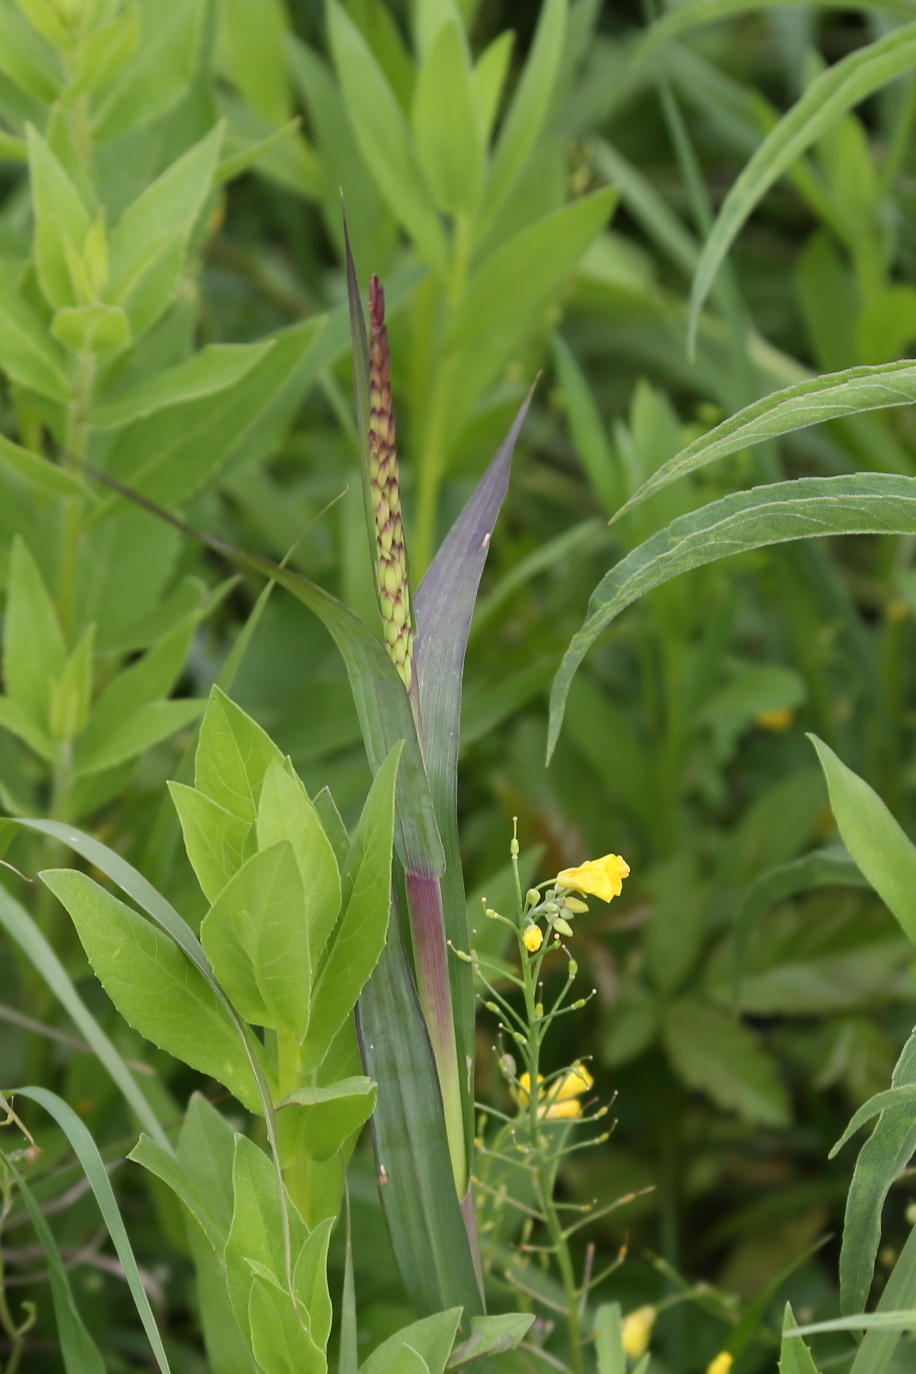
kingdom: Plantae
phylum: Tracheophyta
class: Liliopsida
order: Poales
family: Poaceae
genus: Tripsacum
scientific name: Tripsacum dactyloides
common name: Buffalo-grass
